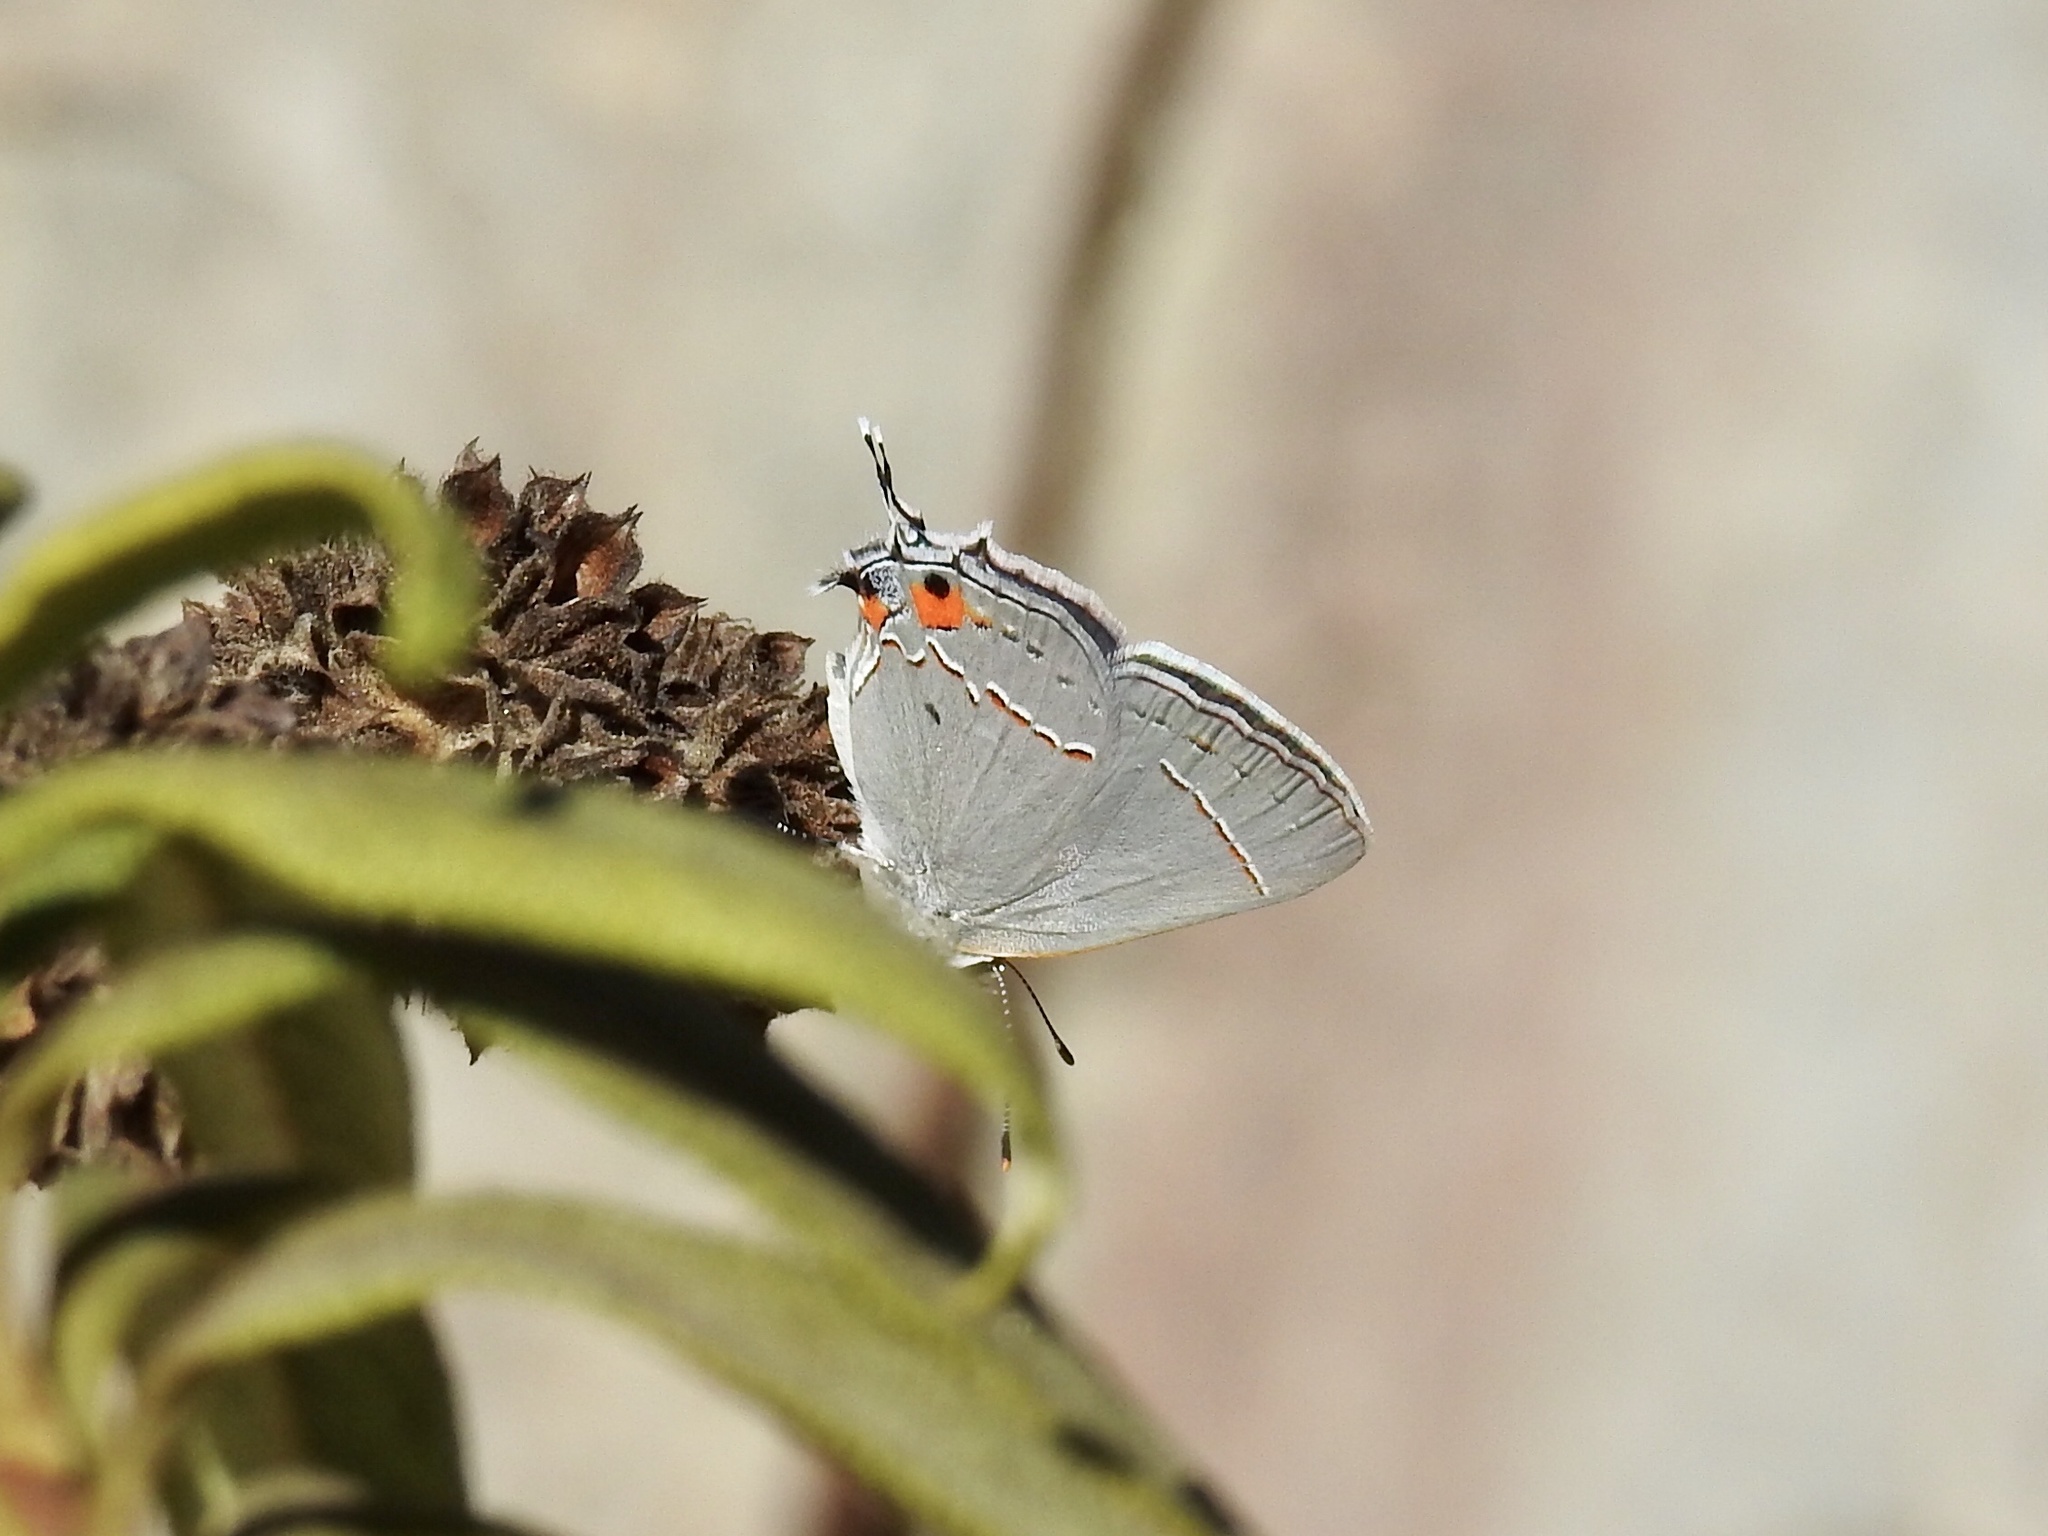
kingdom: Animalia
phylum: Arthropoda
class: Insecta
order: Lepidoptera
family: Lycaenidae
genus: Strymon
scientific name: Strymon melinus
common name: Gray hairstreak
